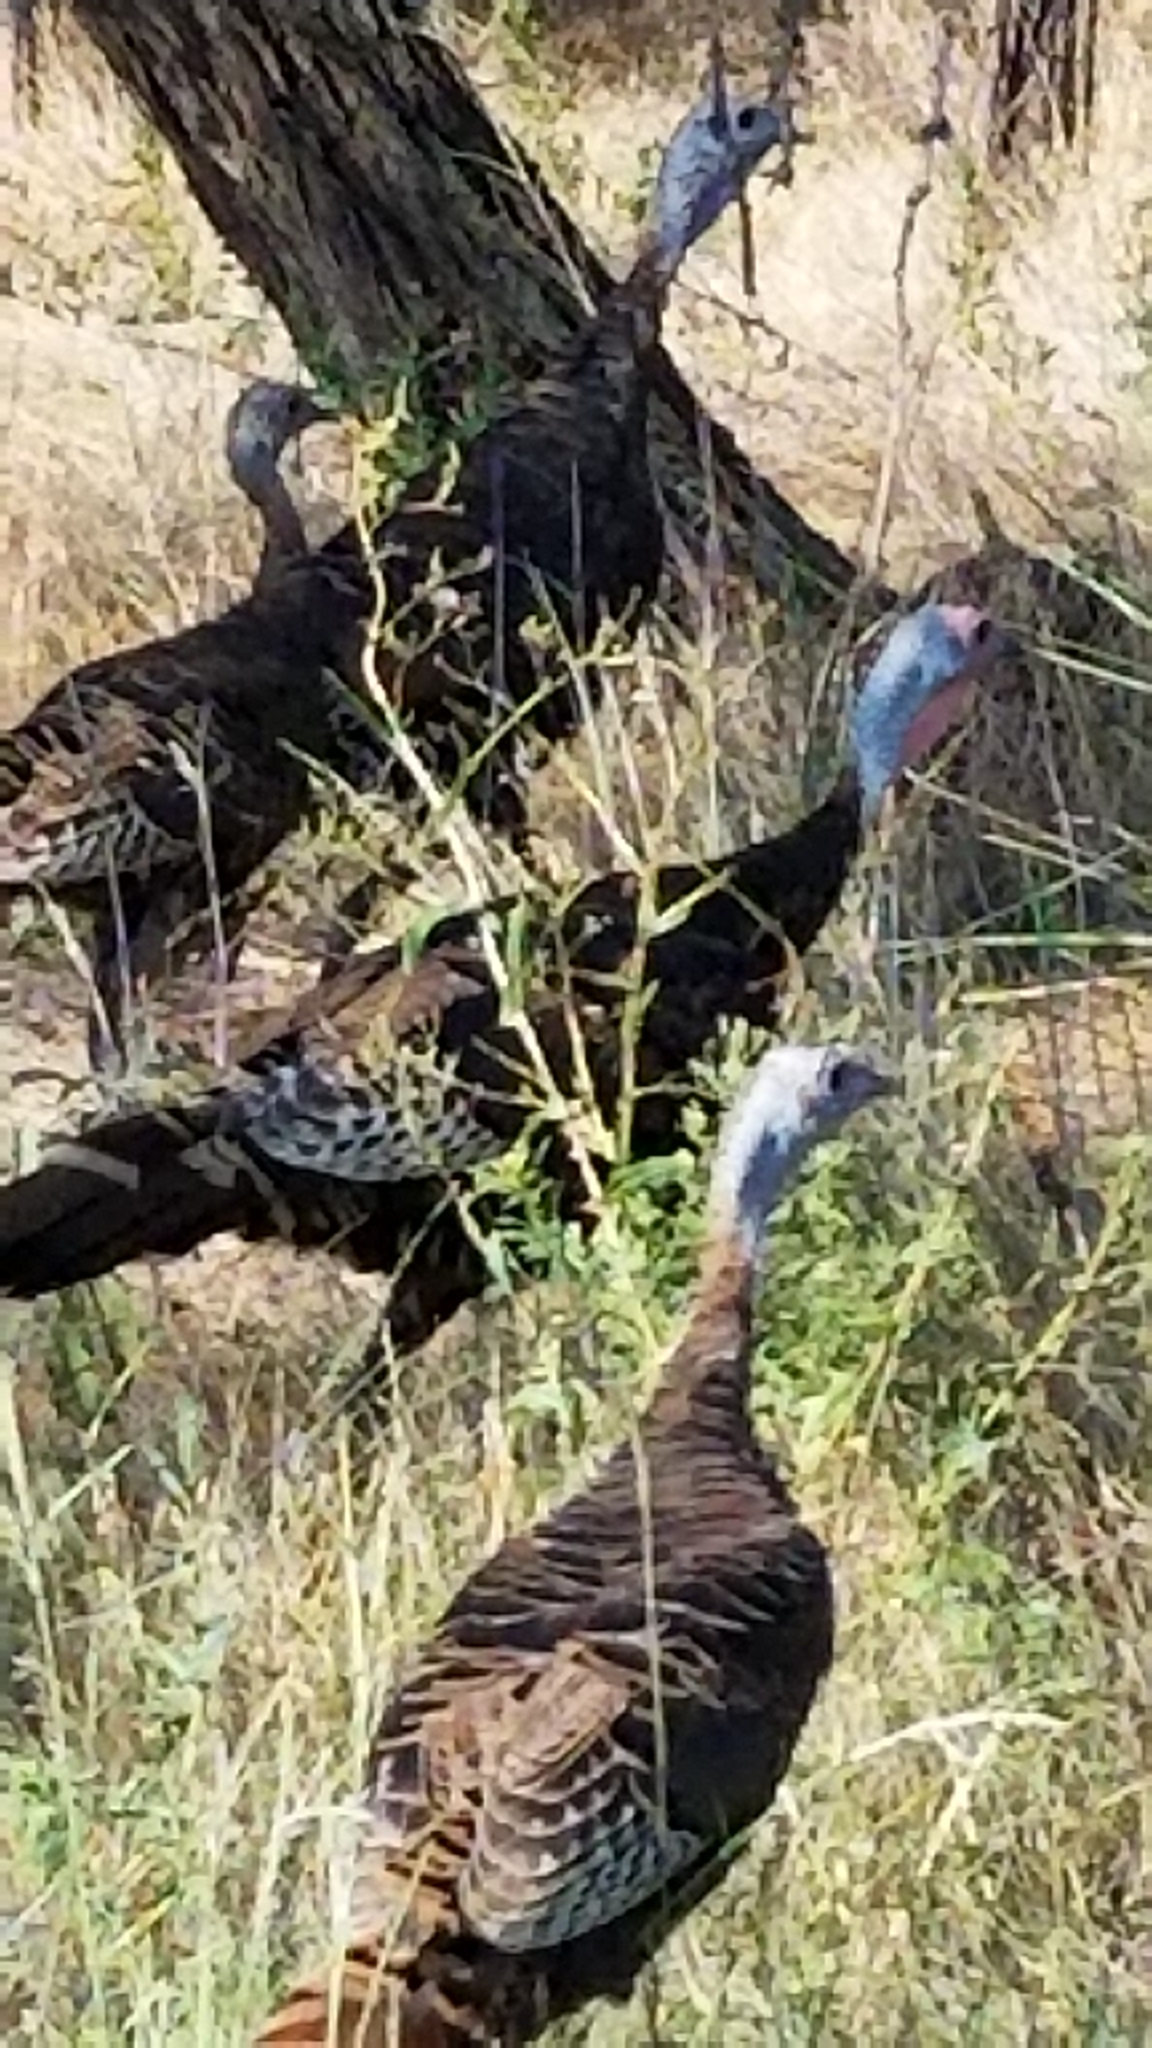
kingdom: Animalia
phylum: Chordata
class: Aves
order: Galliformes
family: Phasianidae
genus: Meleagris
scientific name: Meleagris gallopavo
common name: Wild turkey
